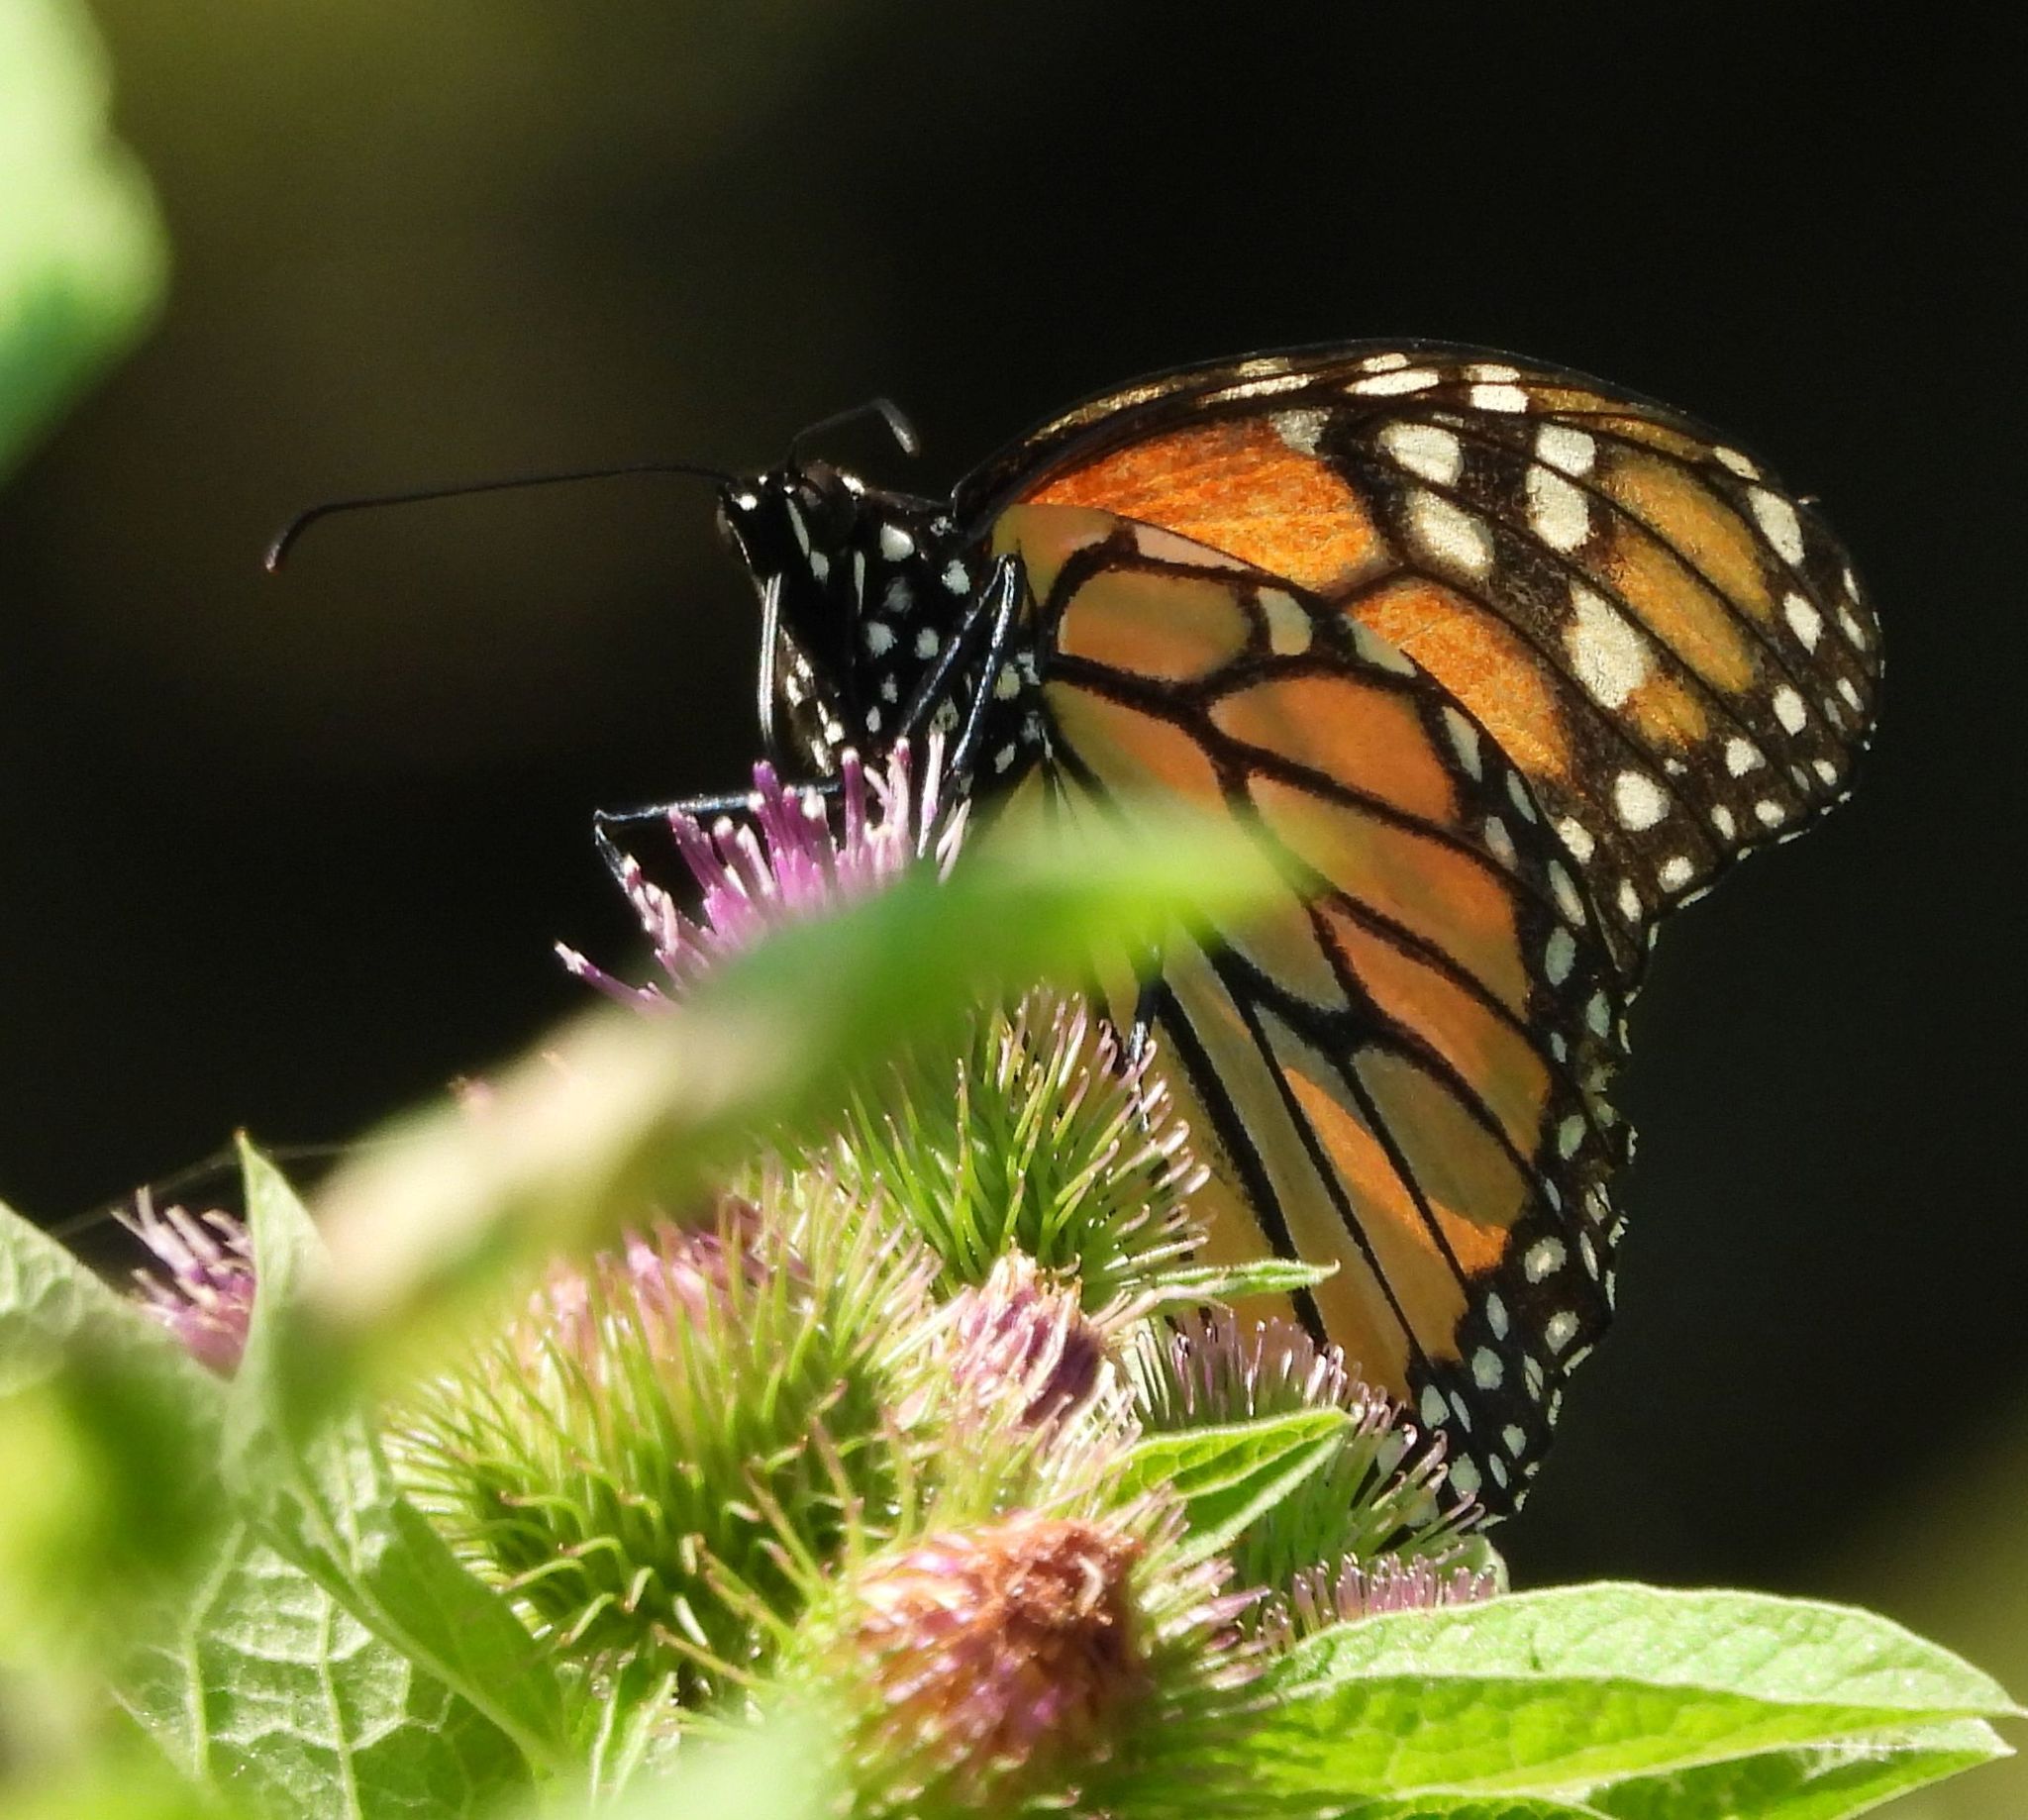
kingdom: Animalia
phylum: Arthropoda
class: Insecta
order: Lepidoptera
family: Nymphalidae
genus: Danaus
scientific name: Danaus plexippus
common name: Monarch
